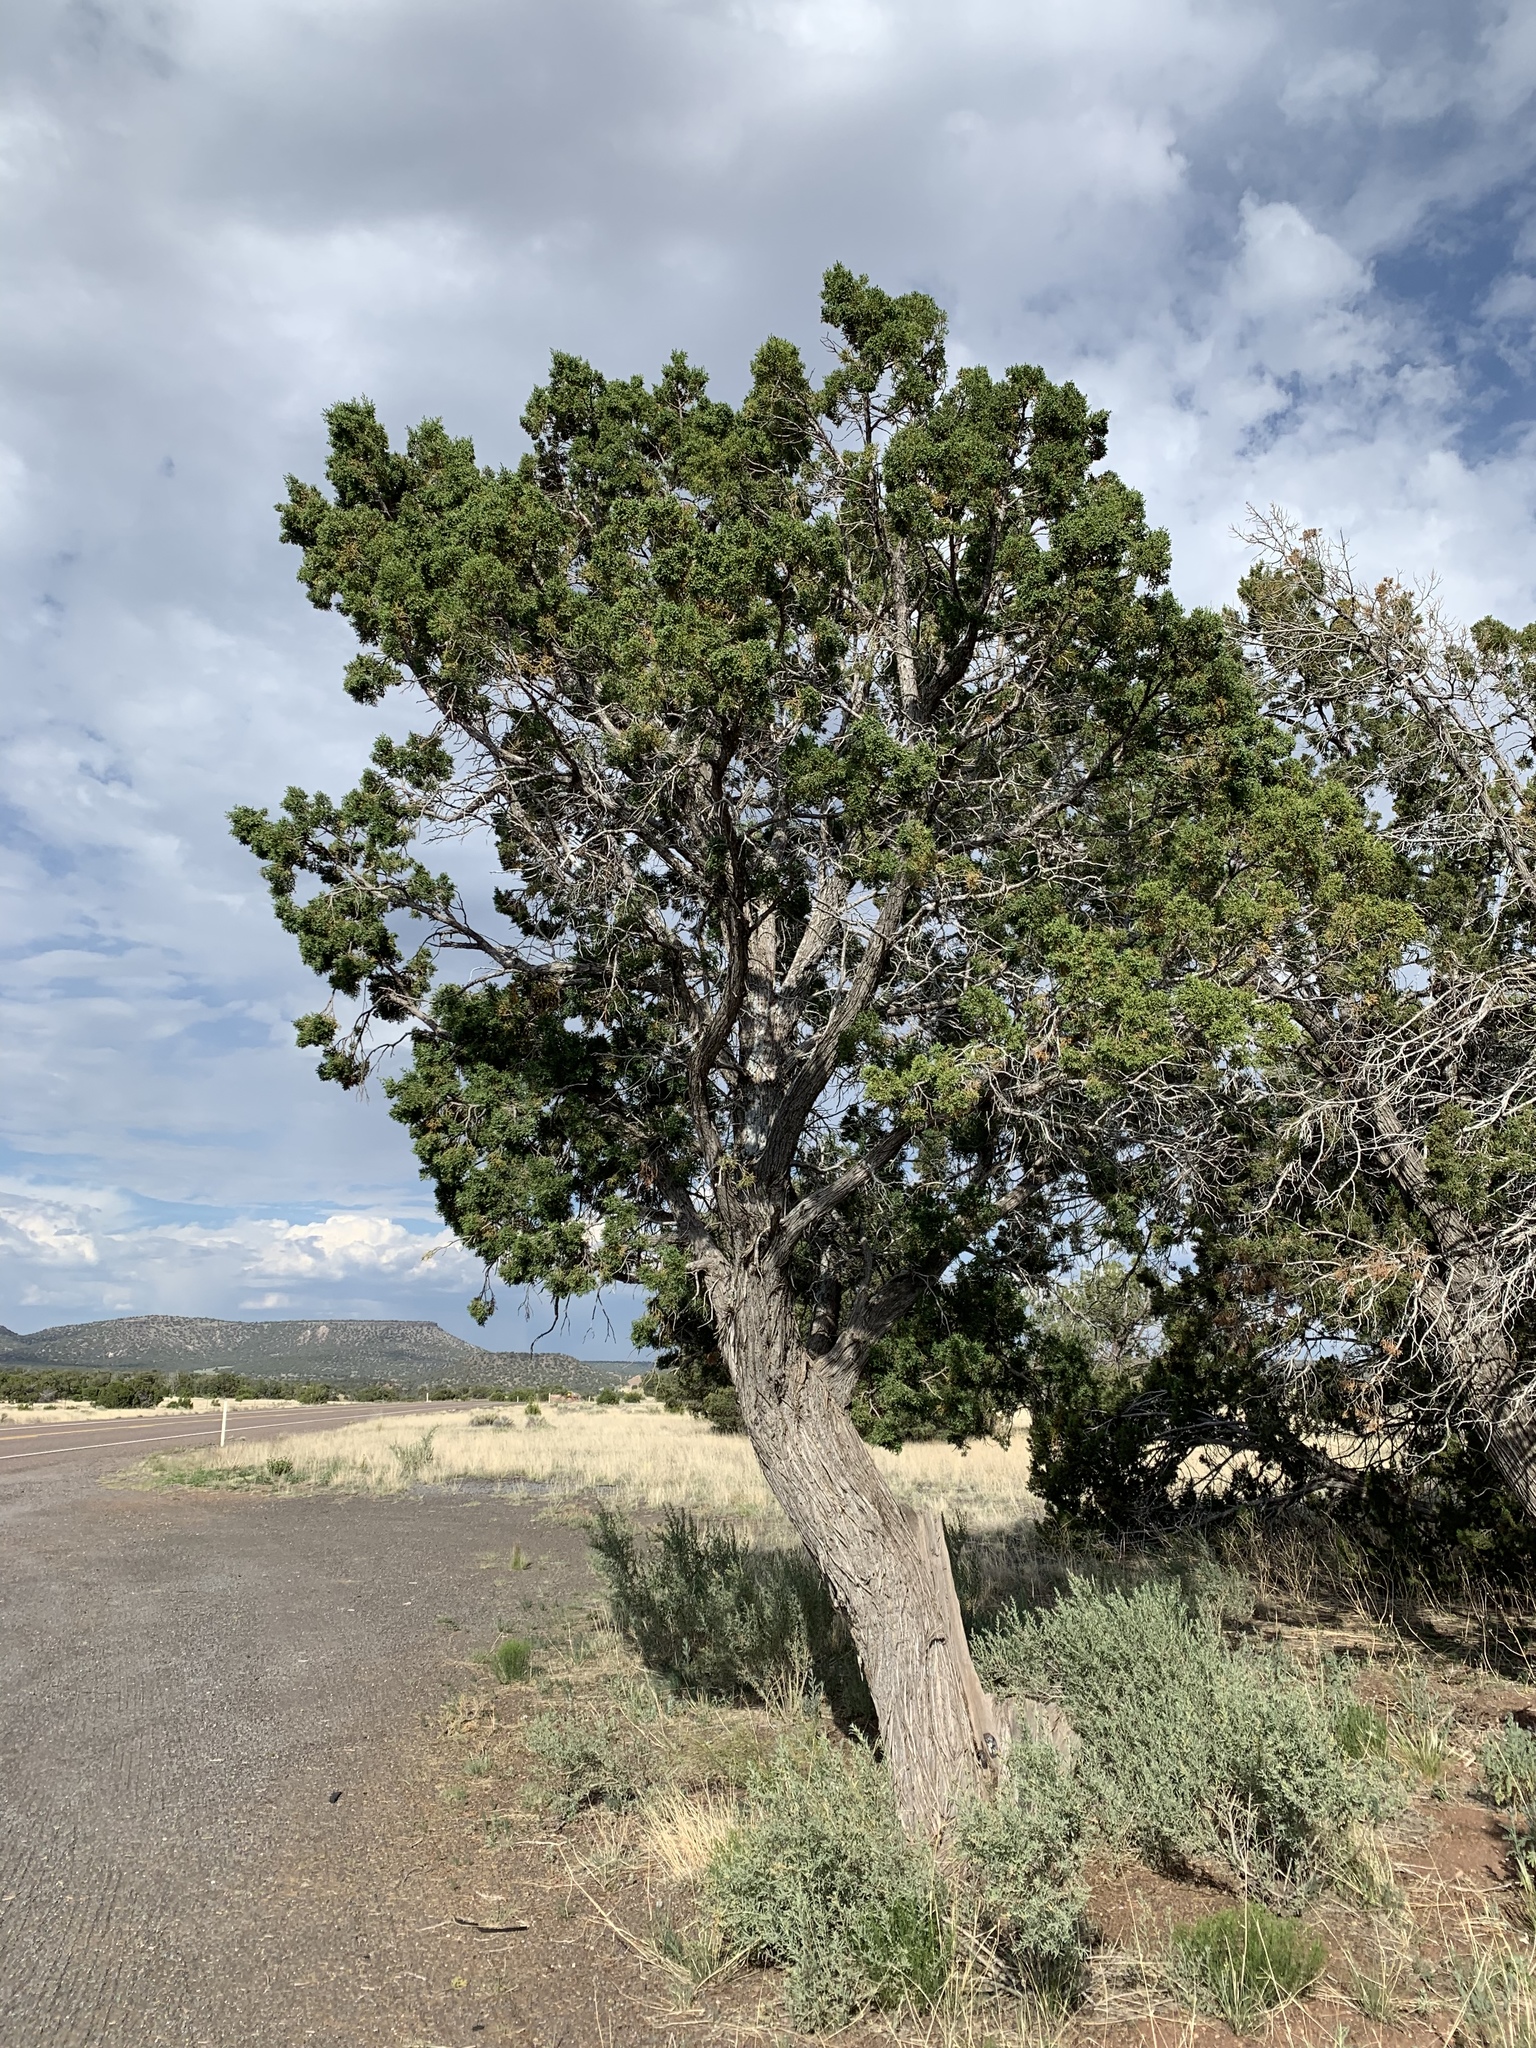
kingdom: Plantae
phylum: Tracheophyta
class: Pinopsida
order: Pinales
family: Cupressaceae
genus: Juniperus
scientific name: Juniperus monosperma
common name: One-seed juniper
